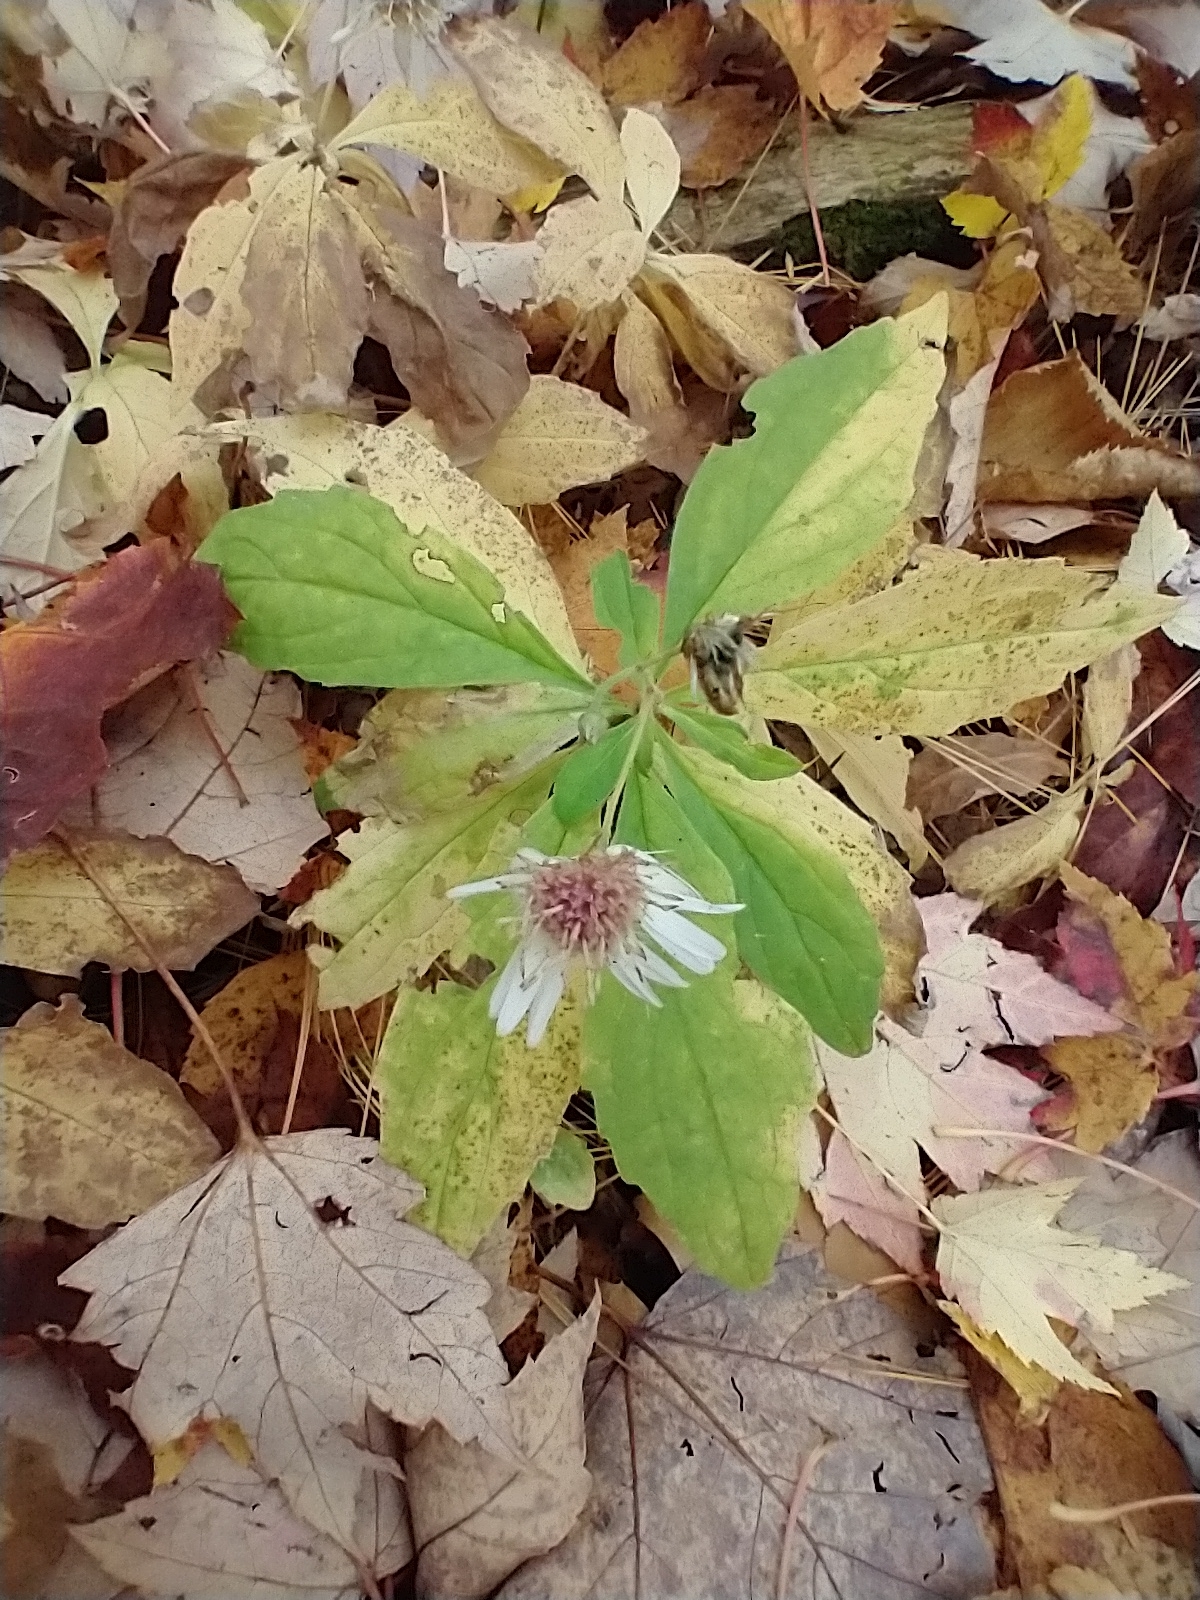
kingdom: Plantae
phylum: Tracheophyta
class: Magnoliopsida
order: Asterales
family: Asteraceae
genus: Oclemena
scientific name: Oclemena acuminata
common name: Mountain aster
